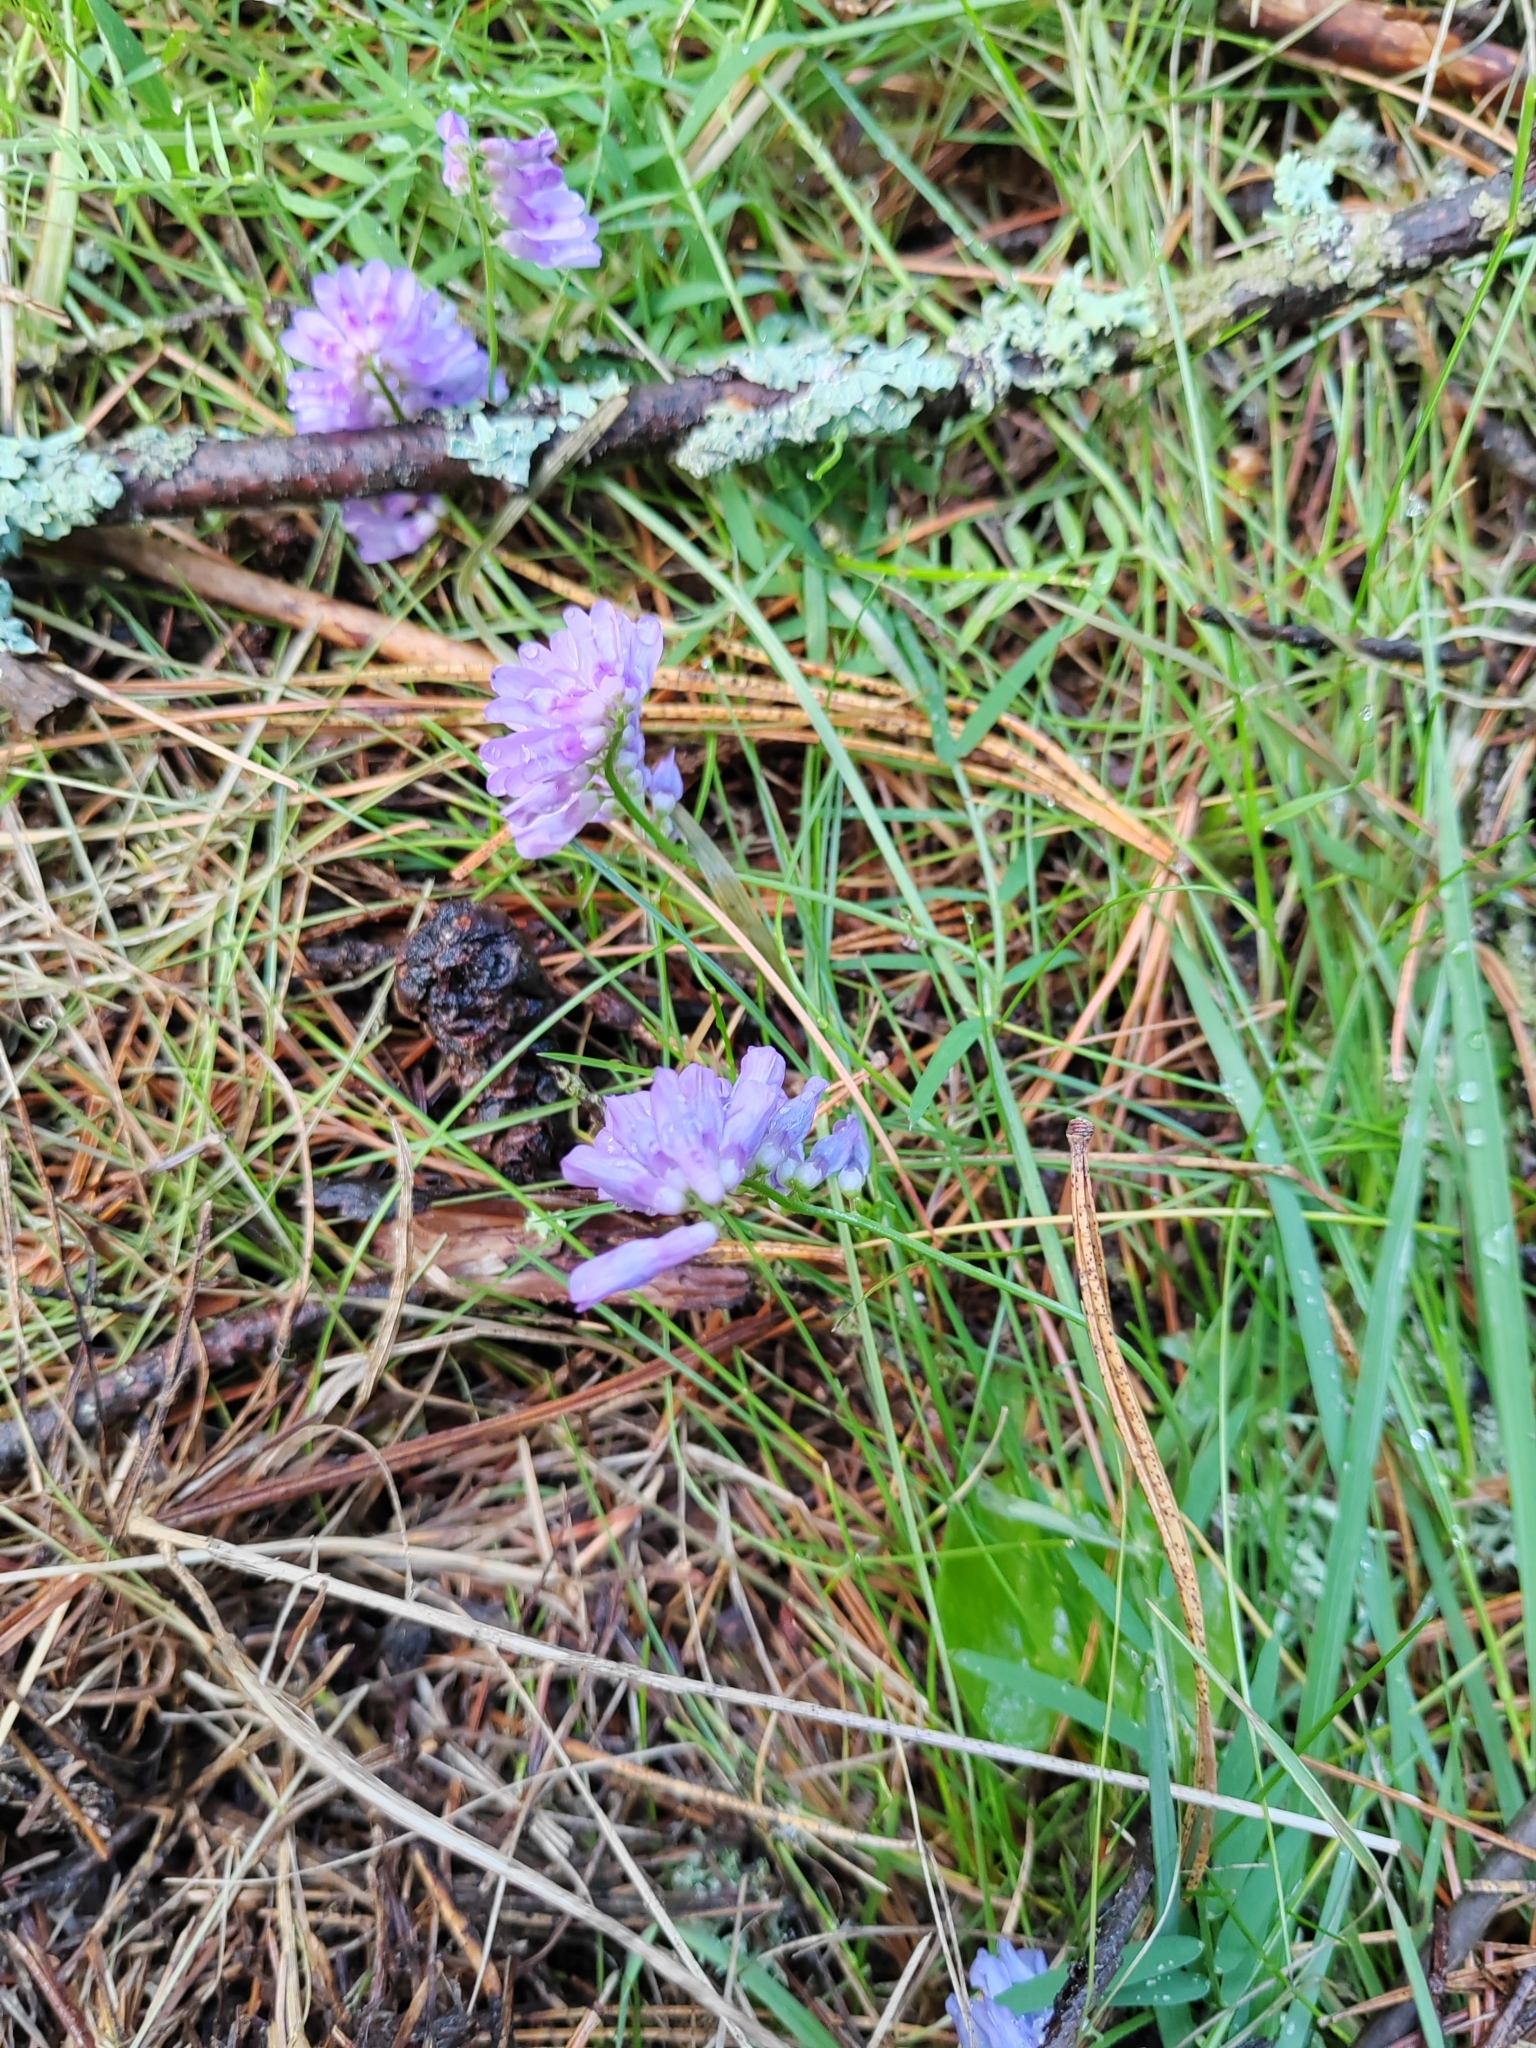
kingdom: Plantae
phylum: Tracheophyta
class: Magnoliopsida
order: Fabales
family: Fabaceae
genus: Vicia
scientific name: Vicia cracca
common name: Bird vetch
